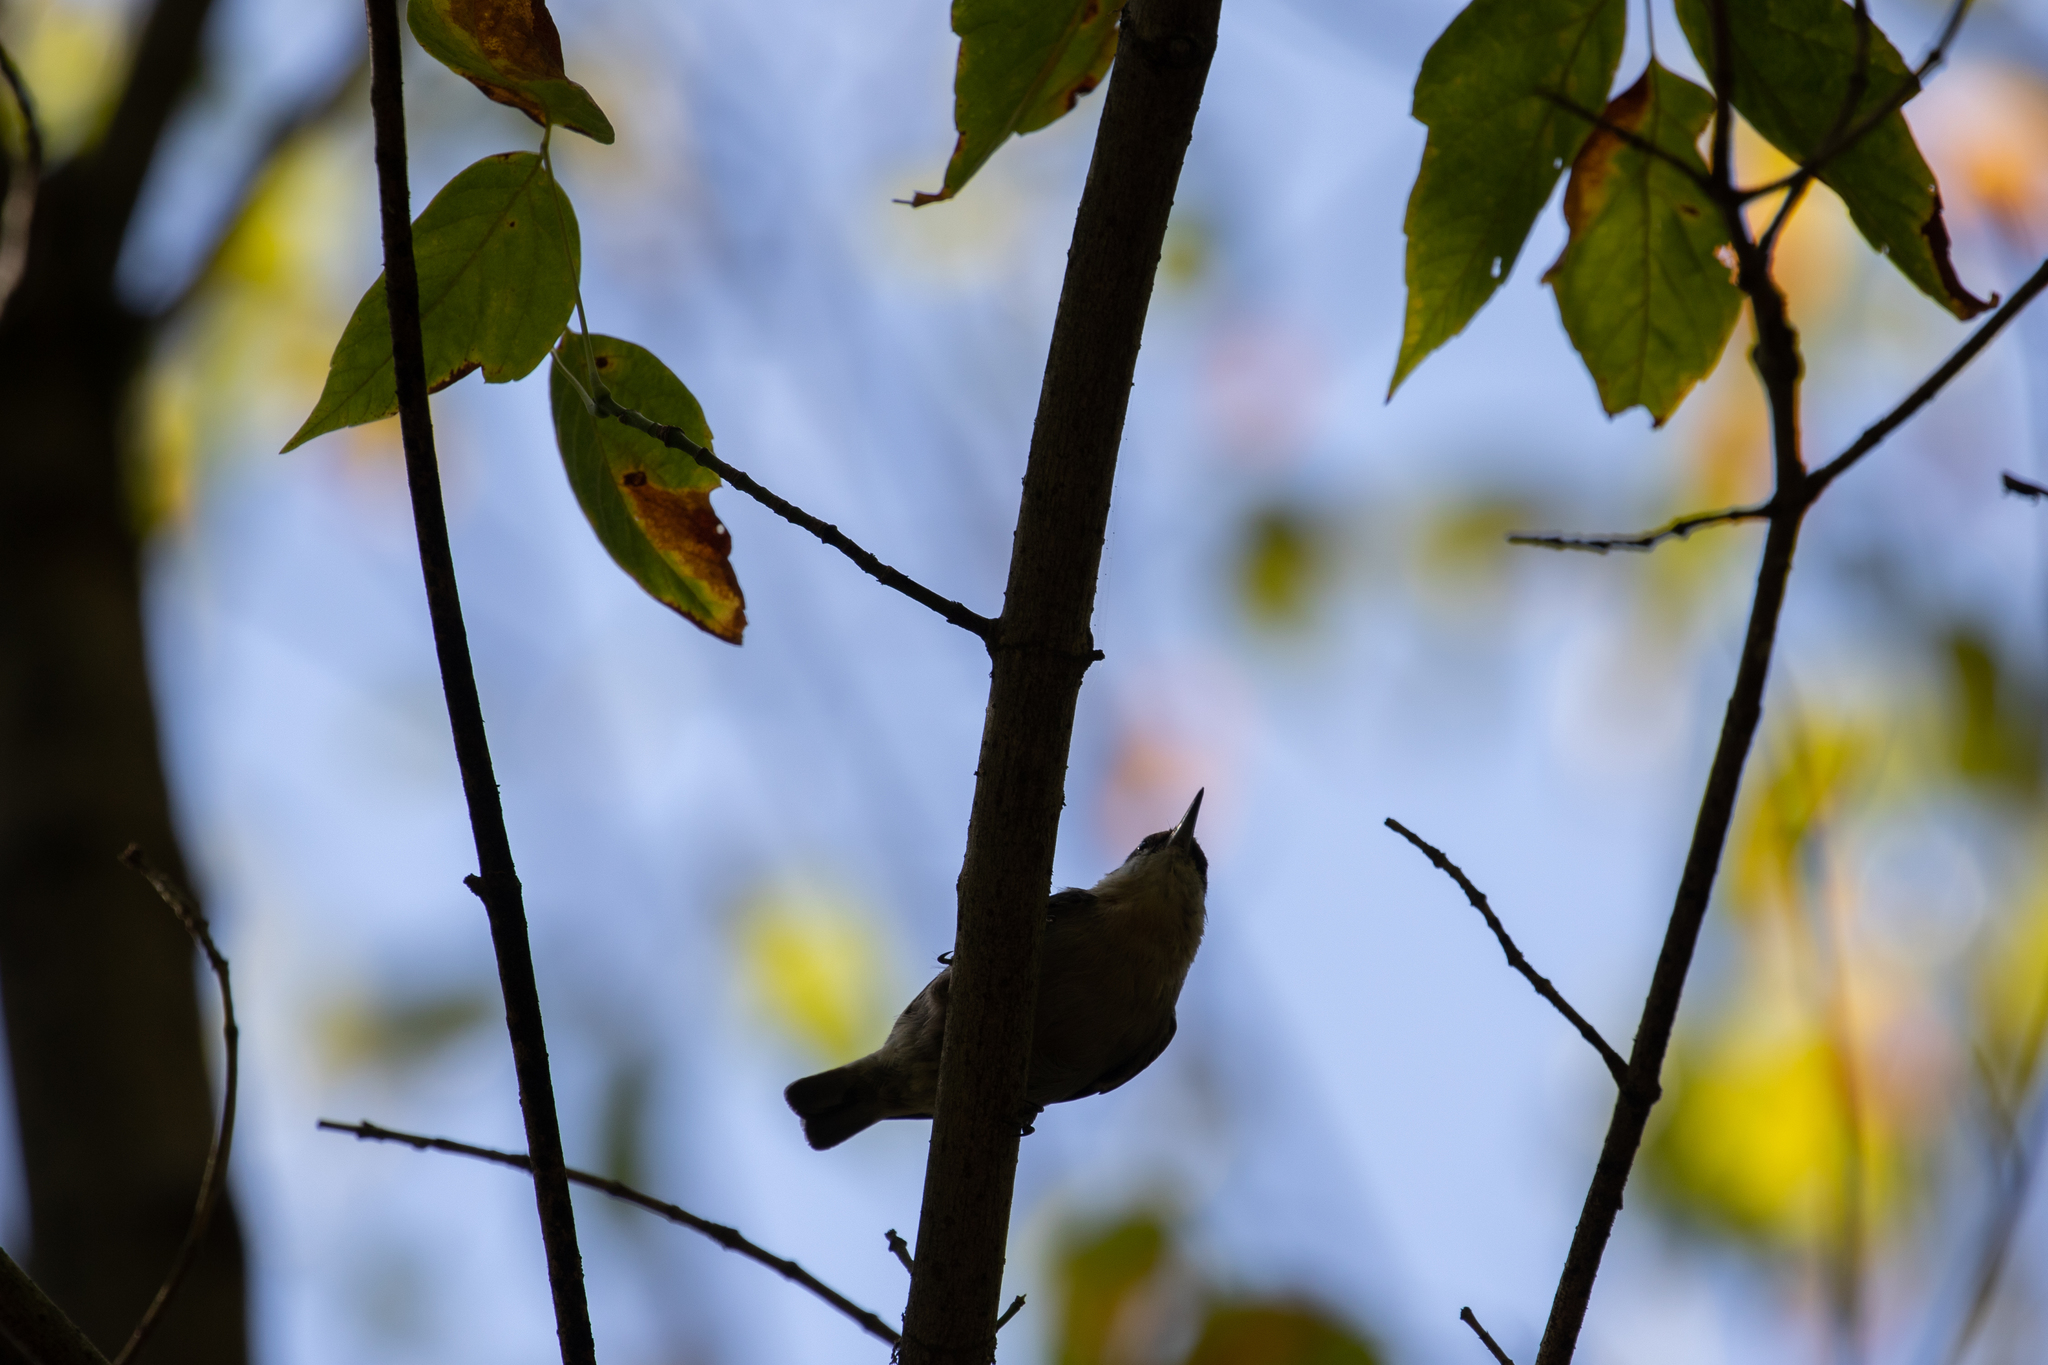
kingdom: Animalia
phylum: Chordata
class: Aves
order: Passeriformes
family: Sittidae
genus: Sitta
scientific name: Sitta pusilla
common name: Brown-headed nuthatch
